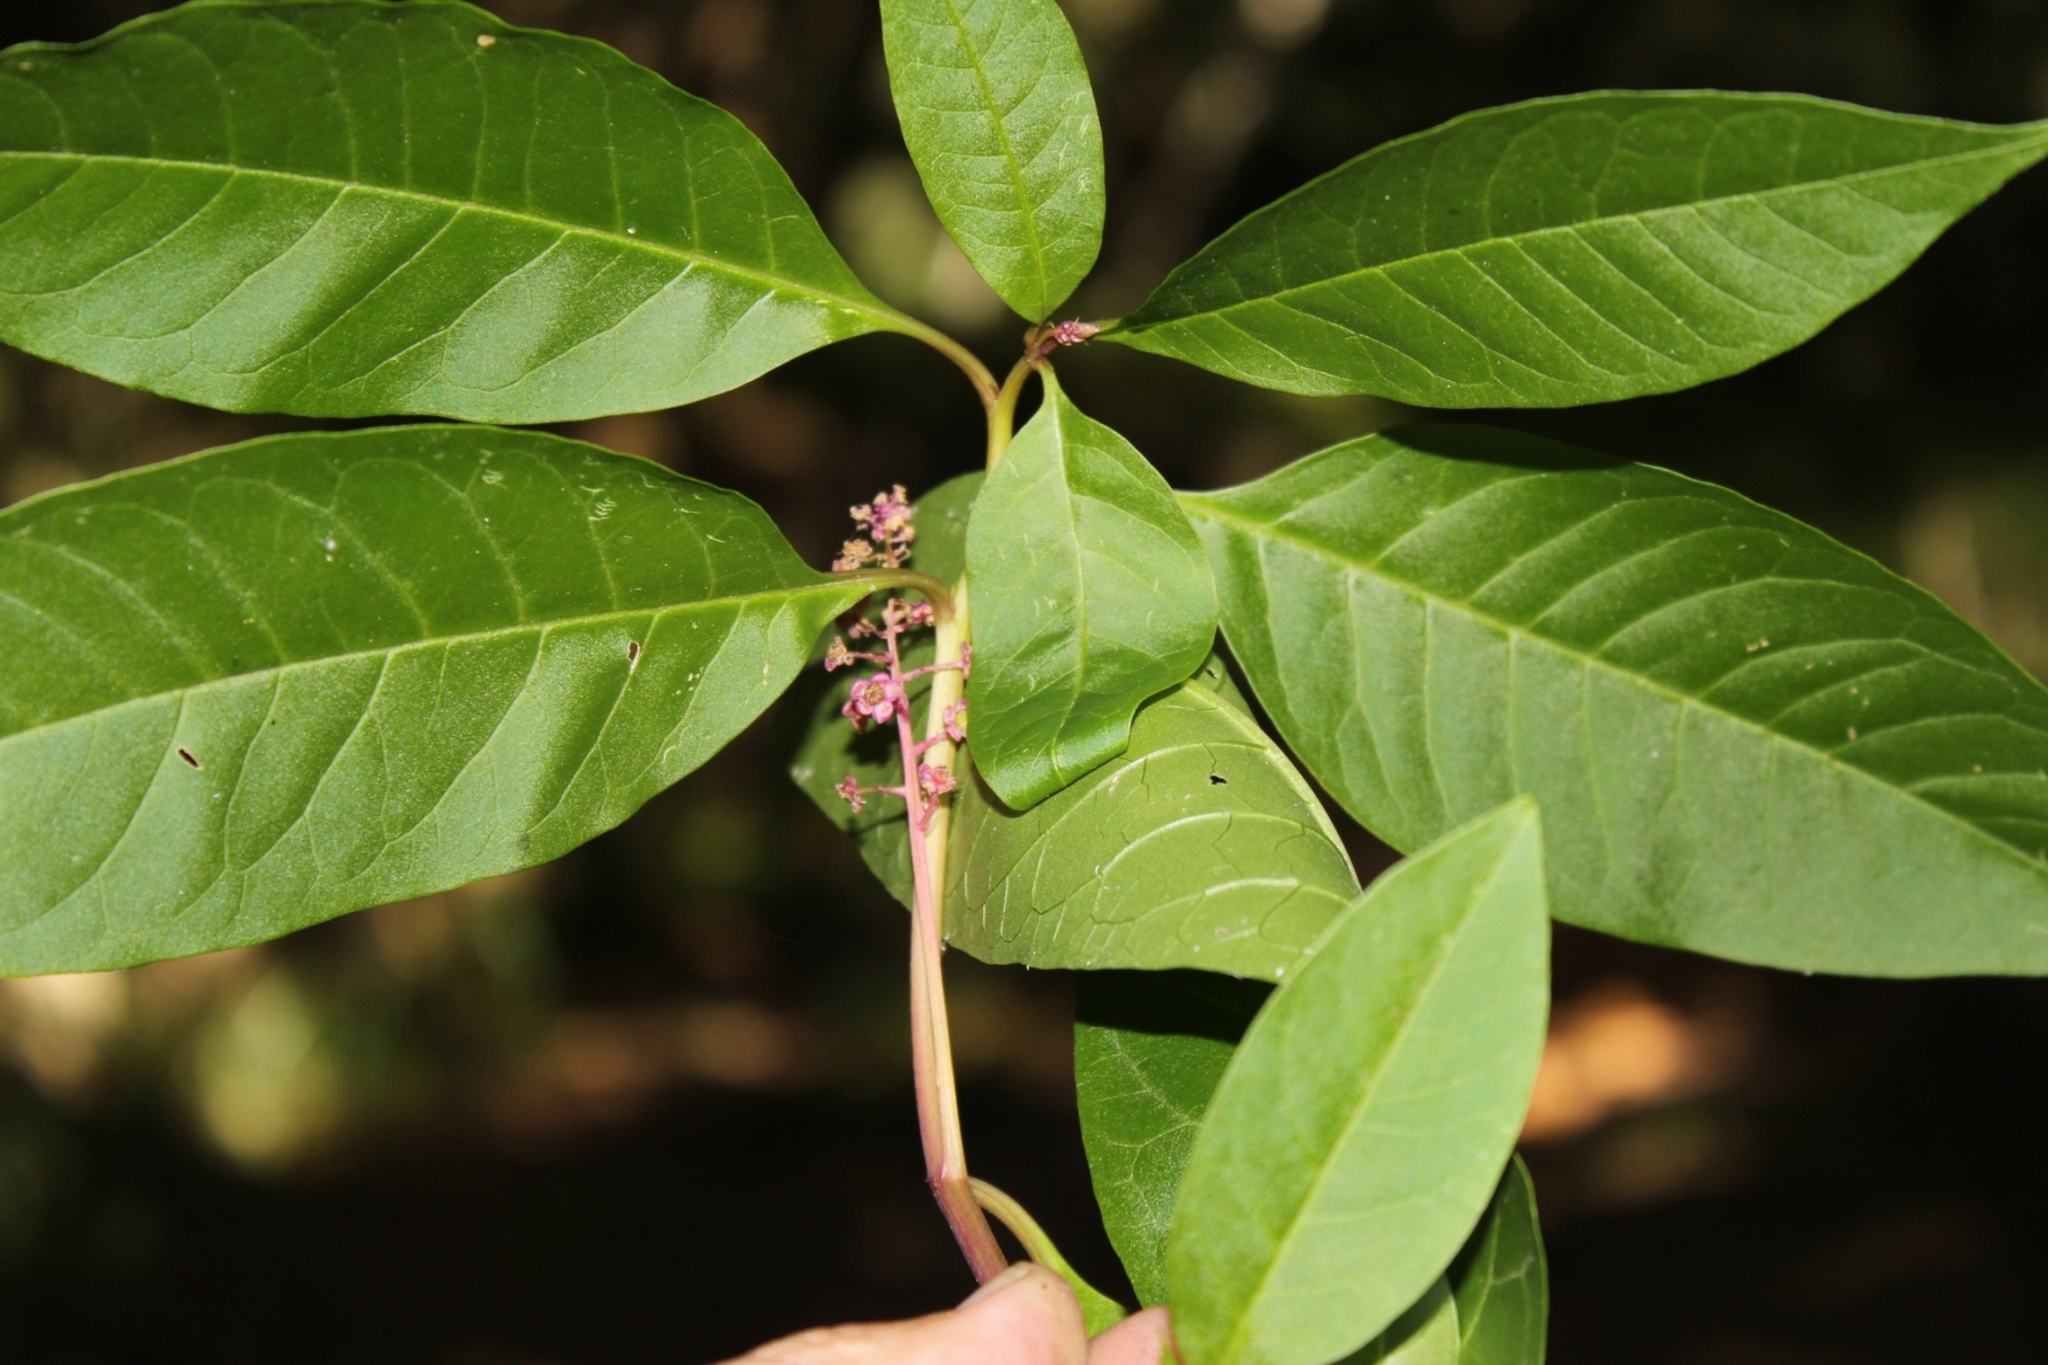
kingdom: Plantae
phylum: Tracheophyta
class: Magnoliopsida
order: Caryophyllales
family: Phytolaccaceae
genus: Phytolacca
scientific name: Phytolacca americana
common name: American pokeweed
